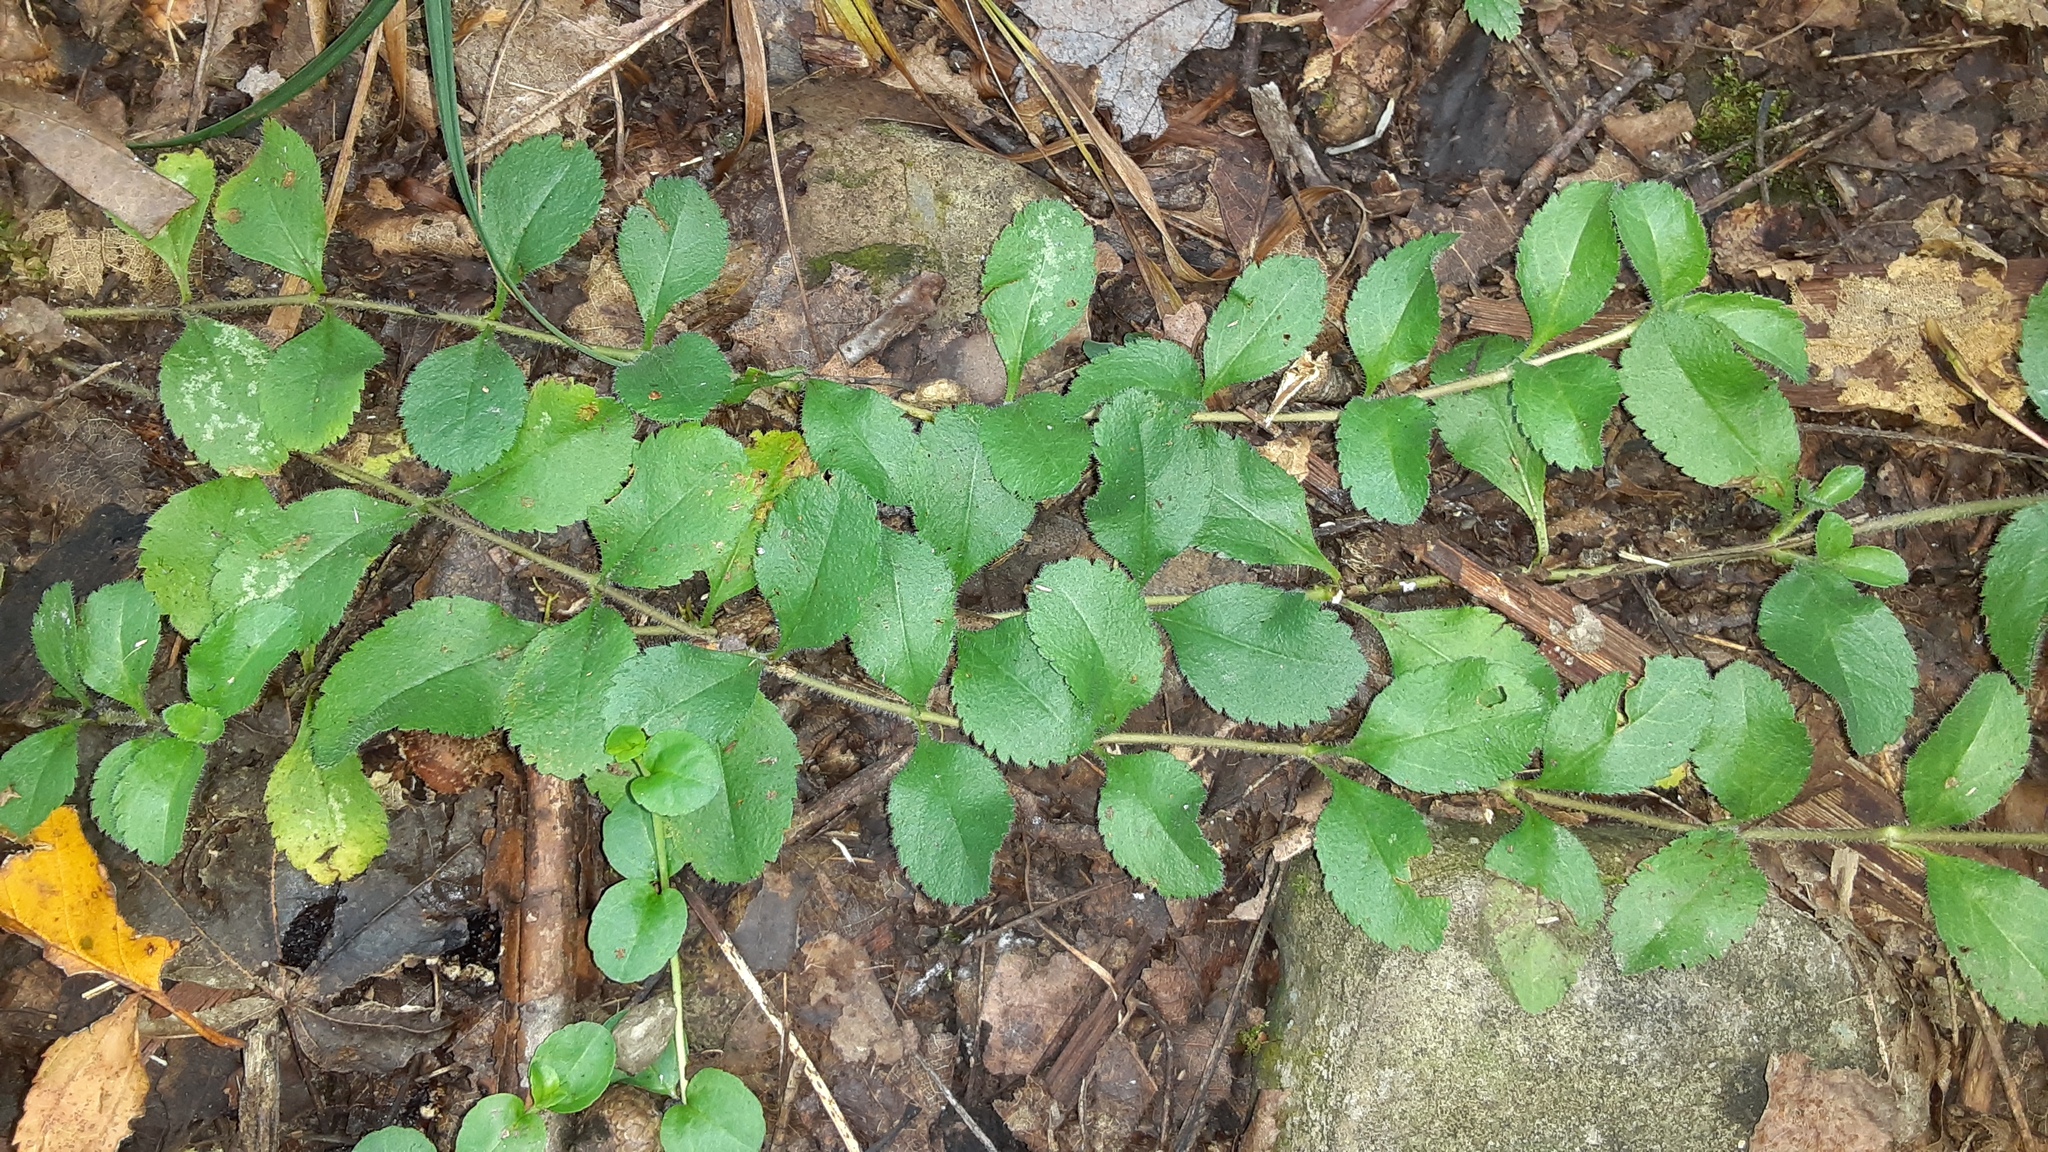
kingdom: Plantae
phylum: Tracheophyta
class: Magnoliopsida
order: Lamiales
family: Plantaginaceae
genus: Veronica
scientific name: Veronica officinalis
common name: Common speedwell
